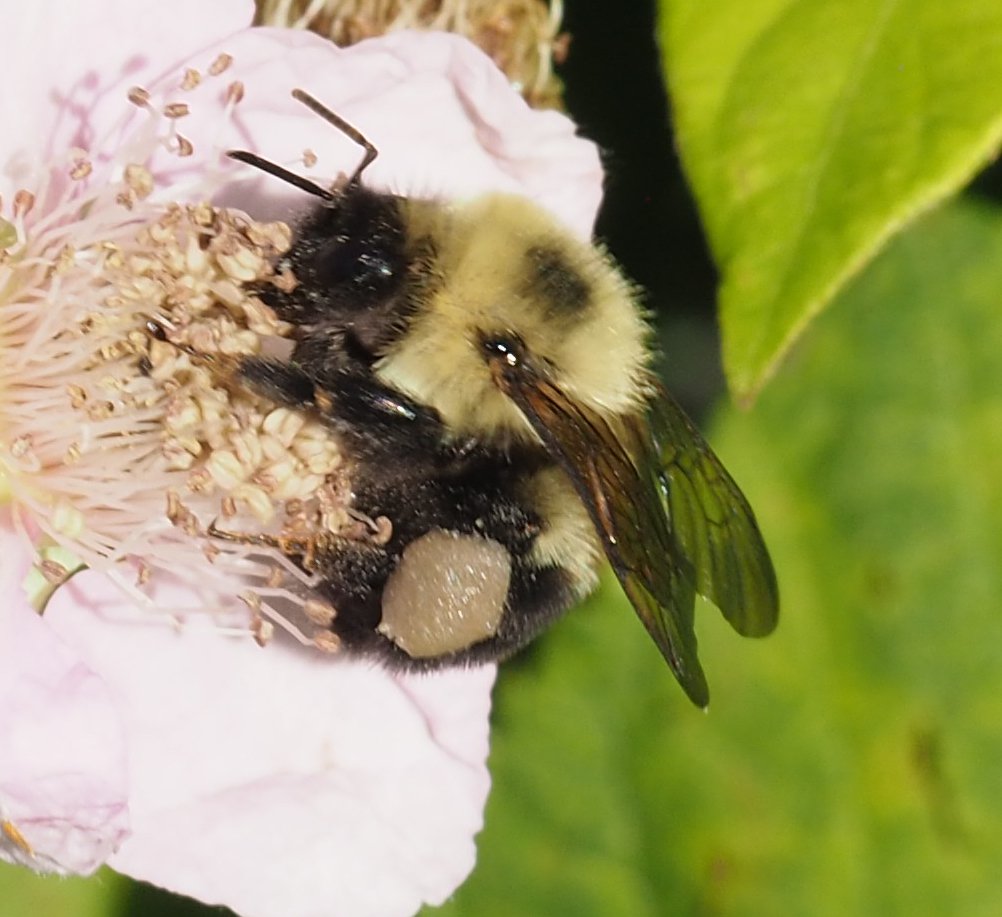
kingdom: Animalia
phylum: Arthropoda
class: Insecta
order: Hymenoptera
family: Apidae
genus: Bombus
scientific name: Bombus bimaculatus
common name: Two-spotted bumble bee
